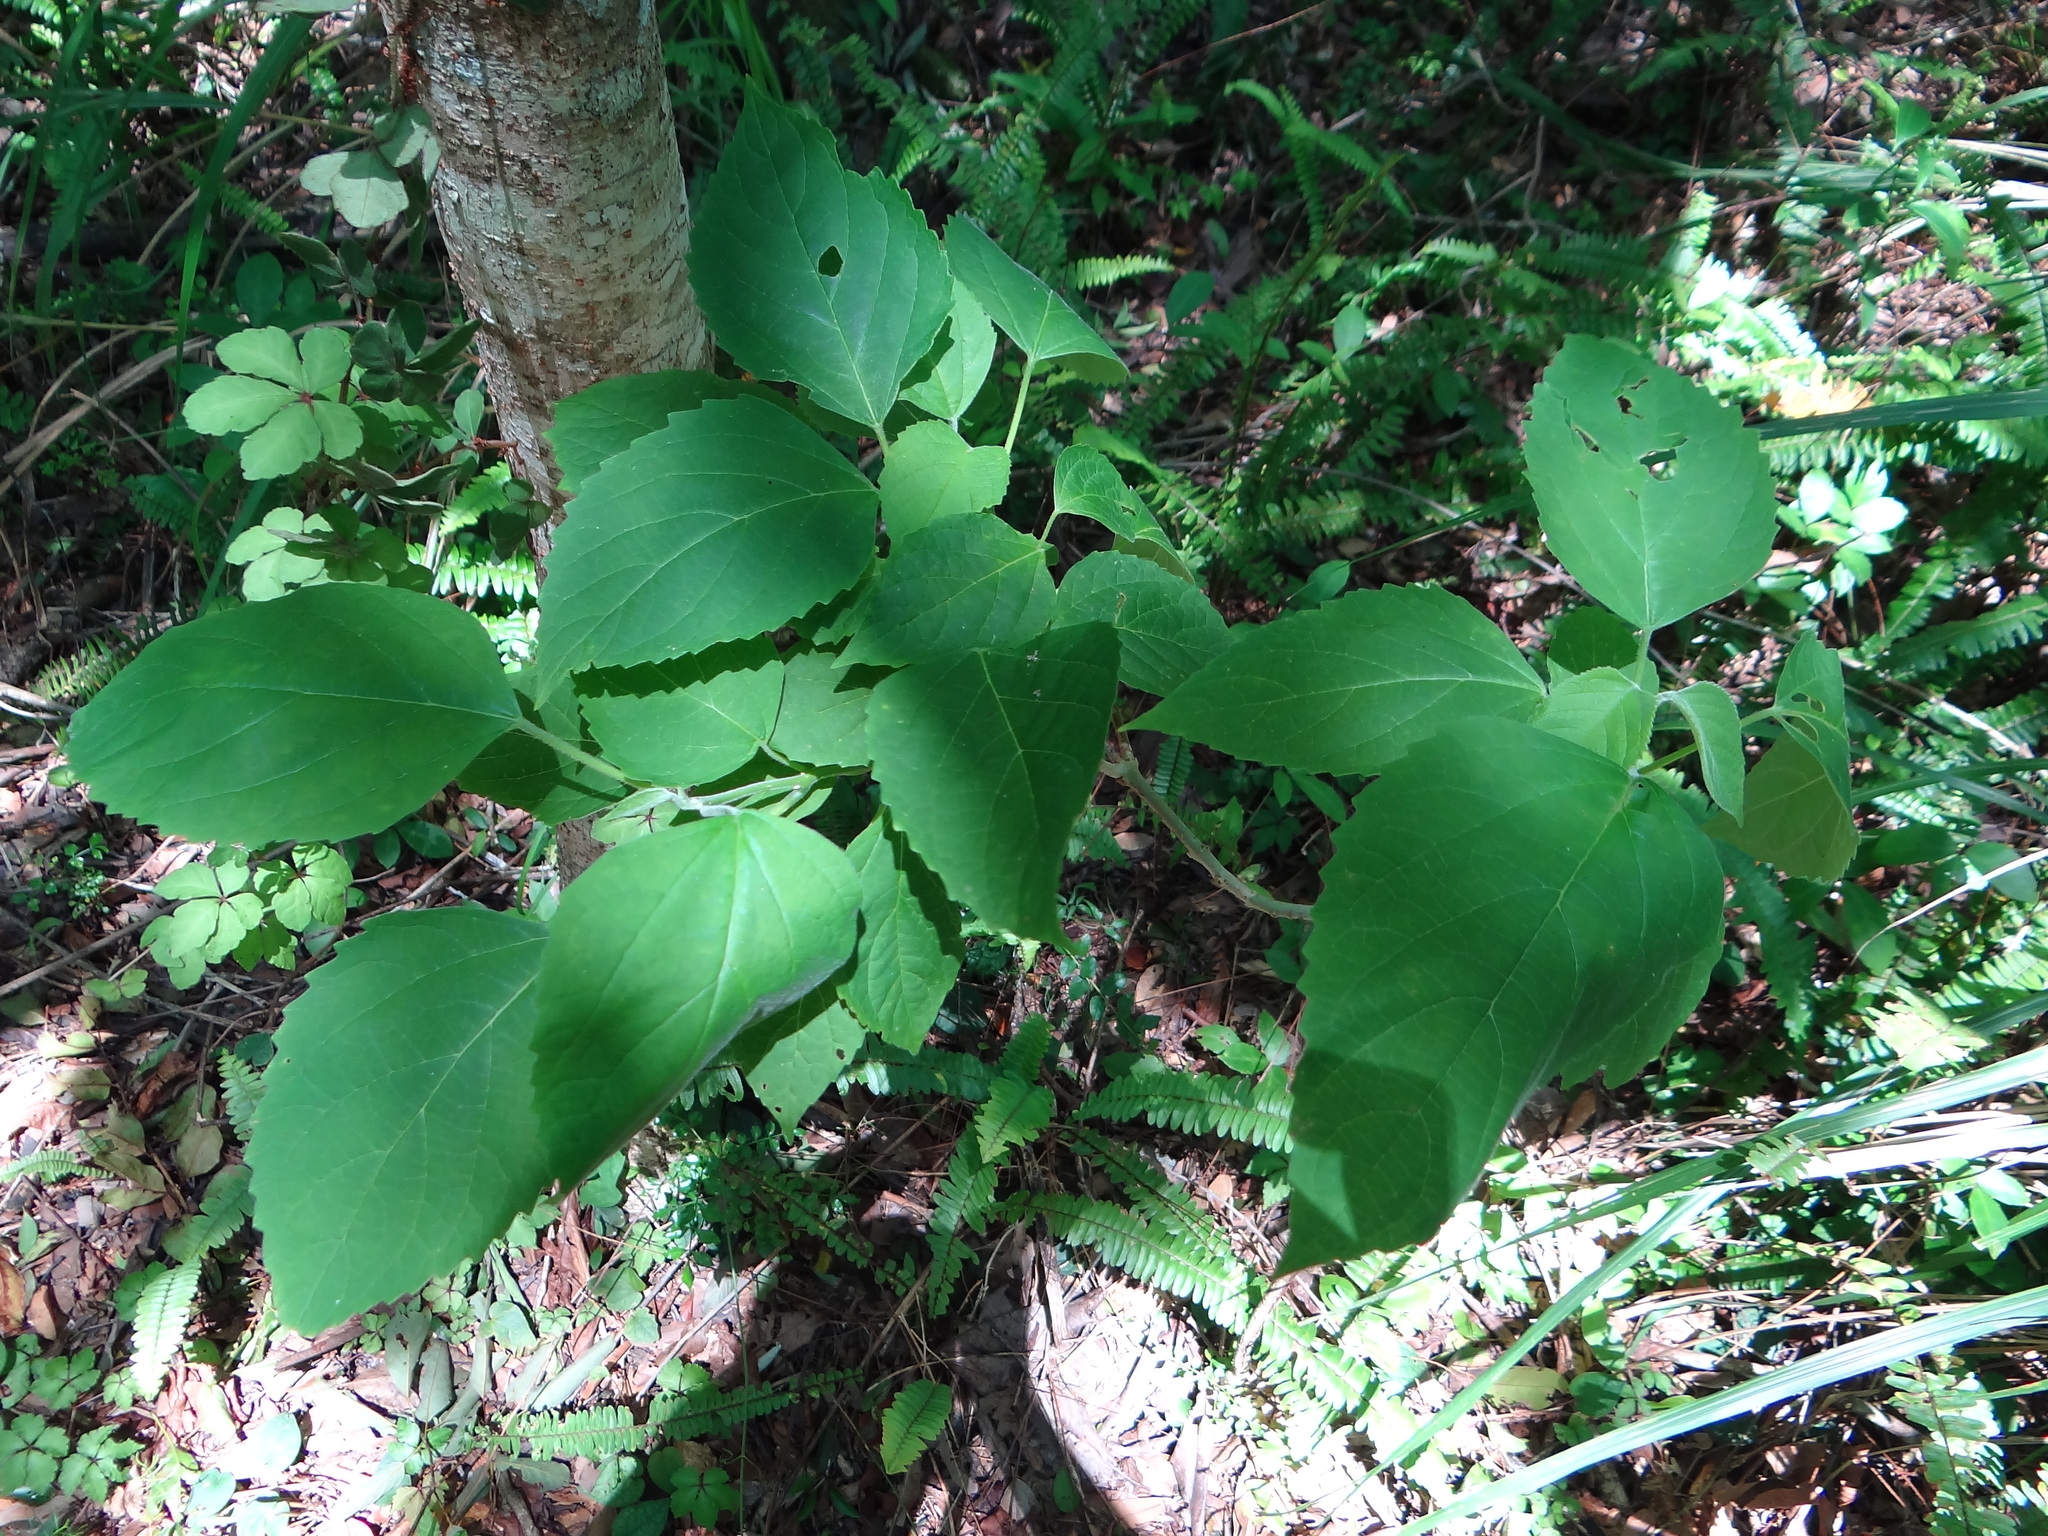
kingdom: Plantae
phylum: Tracheophyta
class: Magnoliopsida
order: Lamiales
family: Lamiaceae
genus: Clerodendrum
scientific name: Clerodendrum canescens
